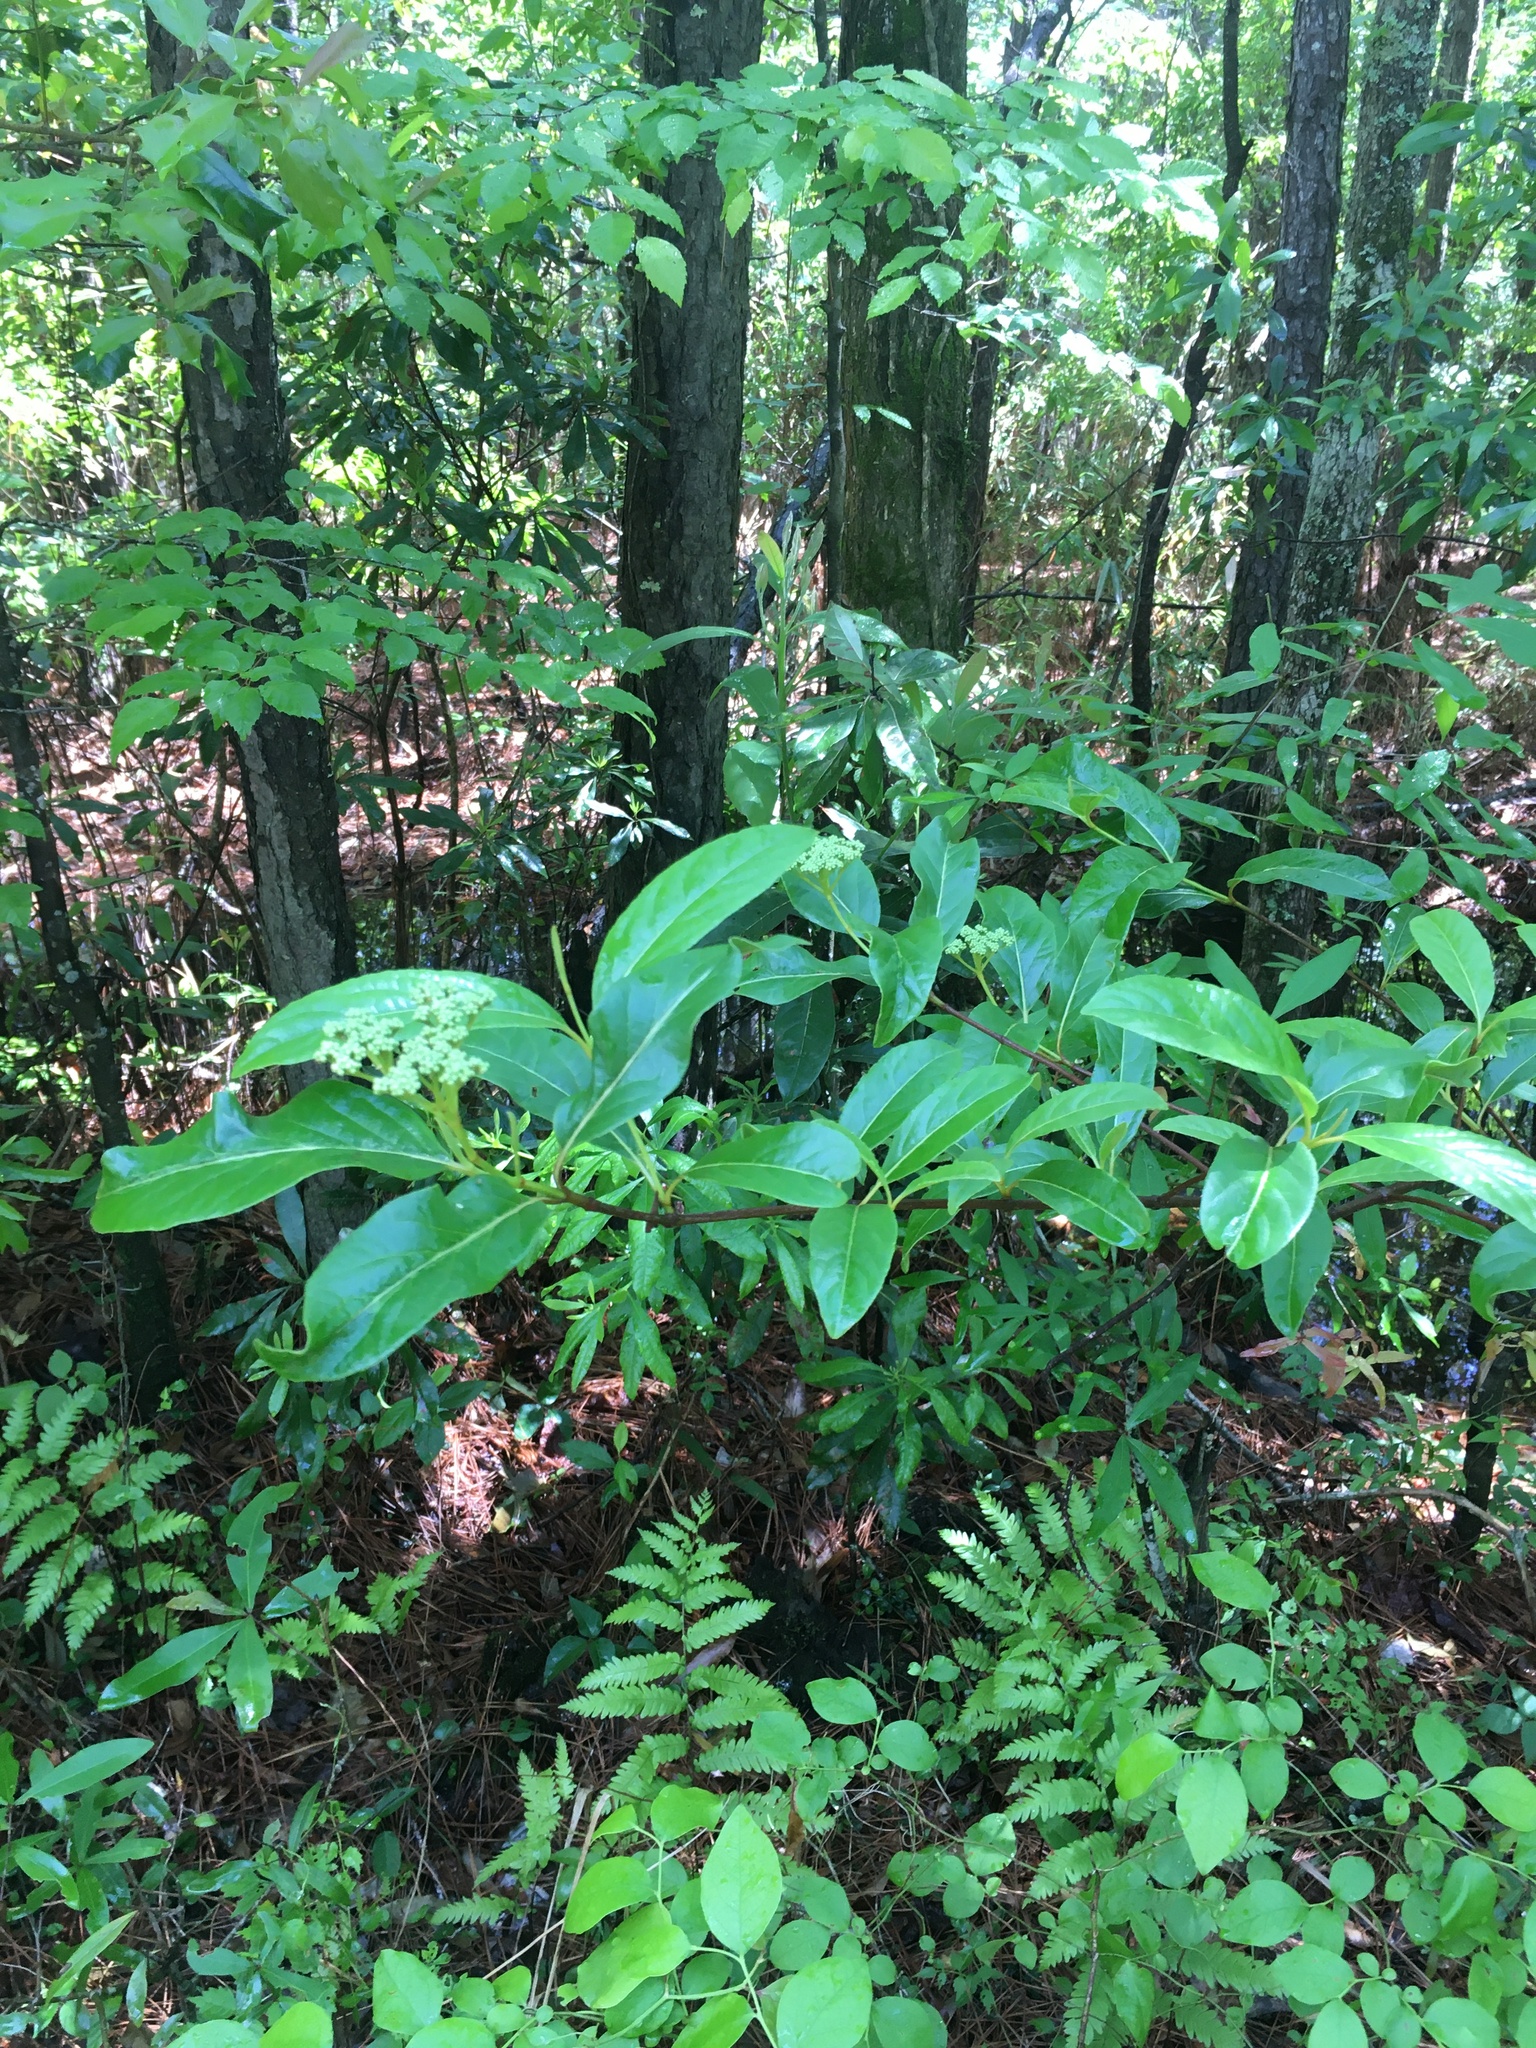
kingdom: Plantae
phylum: Tracheophyta
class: Magnoliopsida
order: Dipsacales
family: Viburnaceae
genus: Viburnum
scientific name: Viburnum nudum
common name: Possum haw
